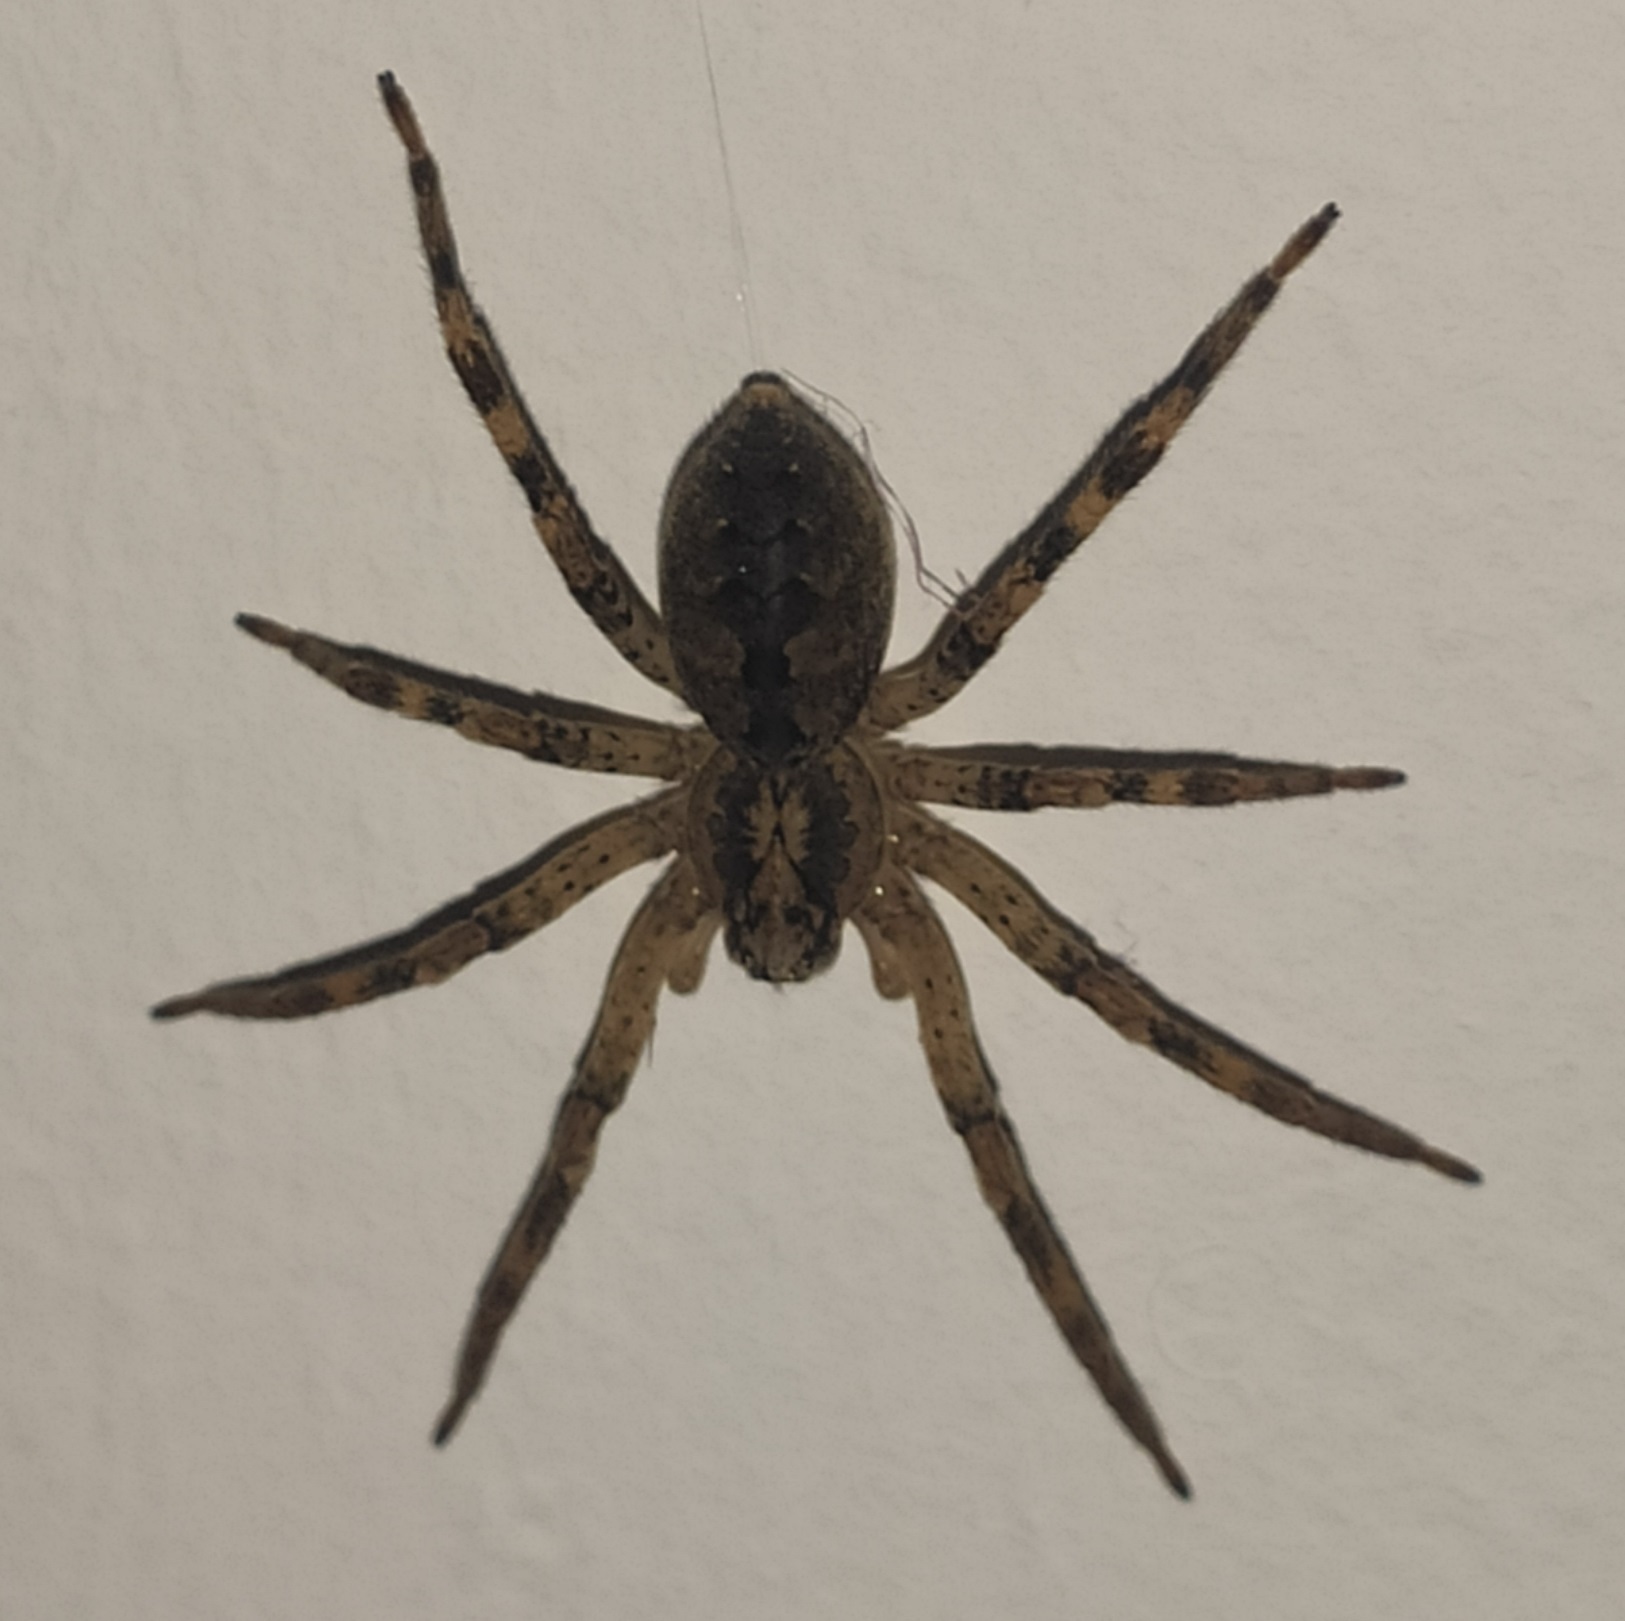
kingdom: Animalia
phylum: Arthropoda
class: Arachnida
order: Araneae
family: Zoropsidae
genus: Zoropsis
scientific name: Zoropsis spinimana
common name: Zoropsid spider
